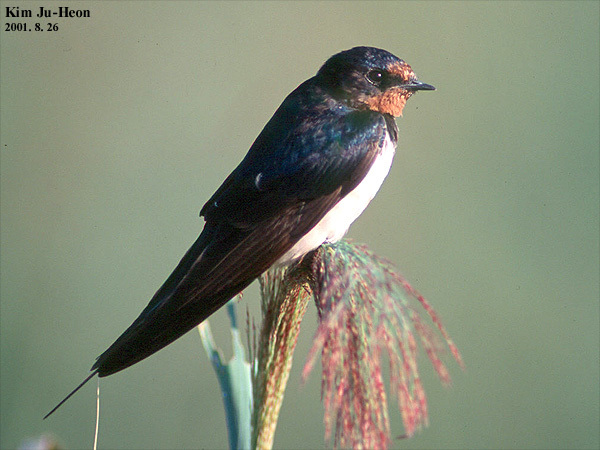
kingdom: Animalia
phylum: Chordata
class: Aves
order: Passeriformes
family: Hirundinidae
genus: Hirundo
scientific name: Hirundo rustica
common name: Barn swallow
